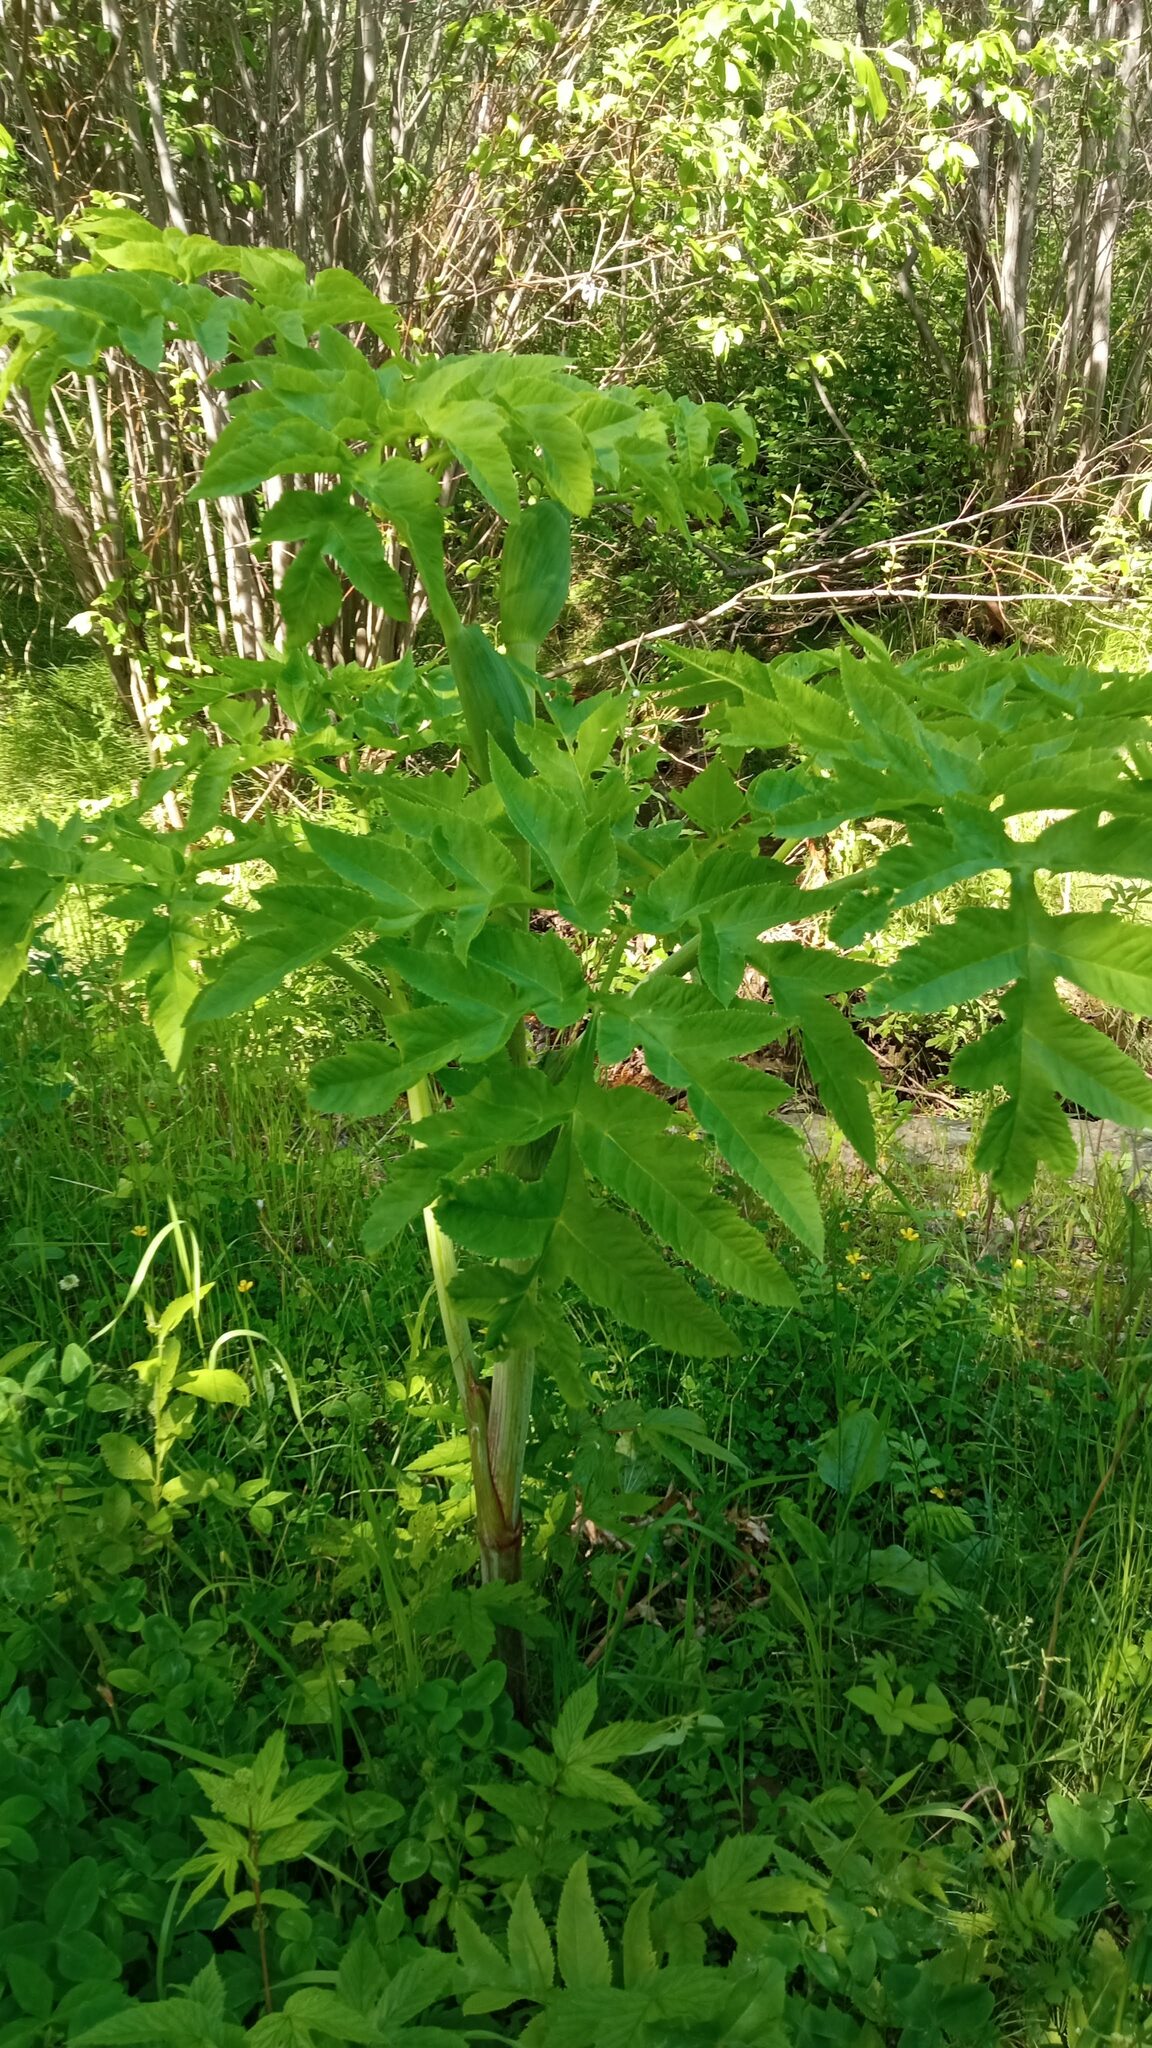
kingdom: Plantae
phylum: Tracheophyta
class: Magnoliopsida
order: Apiales
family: Apiaceae
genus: Angelica
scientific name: Angelica decurrens
